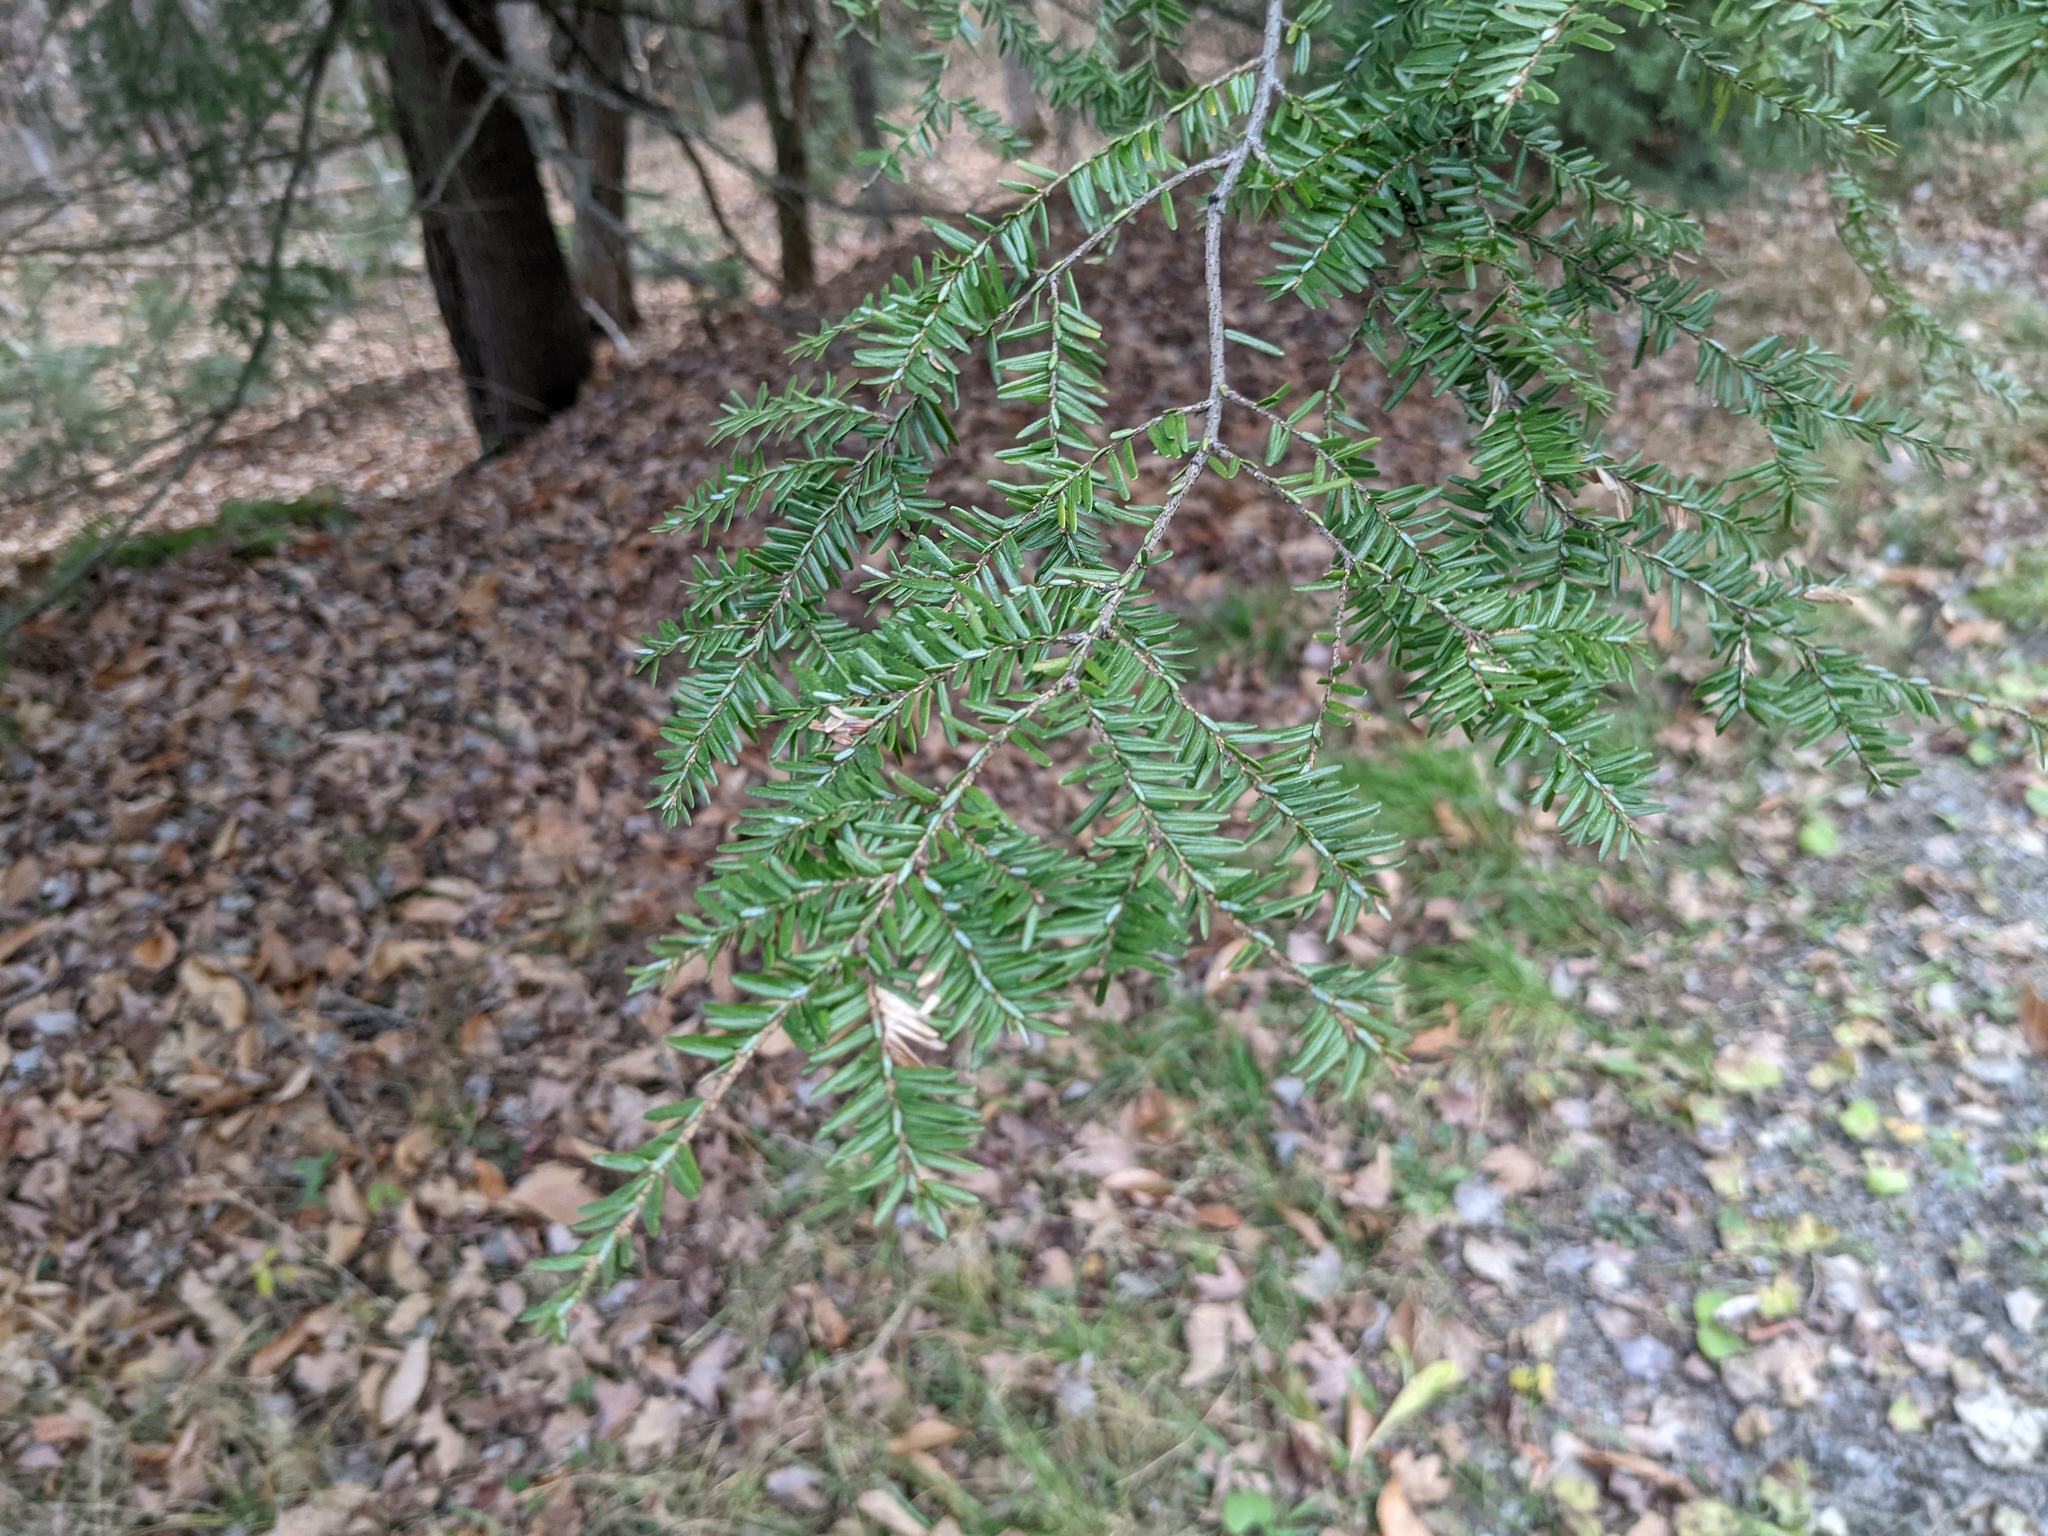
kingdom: Plantae
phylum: Tracheophyta
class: Pinopsida
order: Pinales
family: Pinaceae
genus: Tsuga
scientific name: Tsuga canadensis
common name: Eastern hemlock
